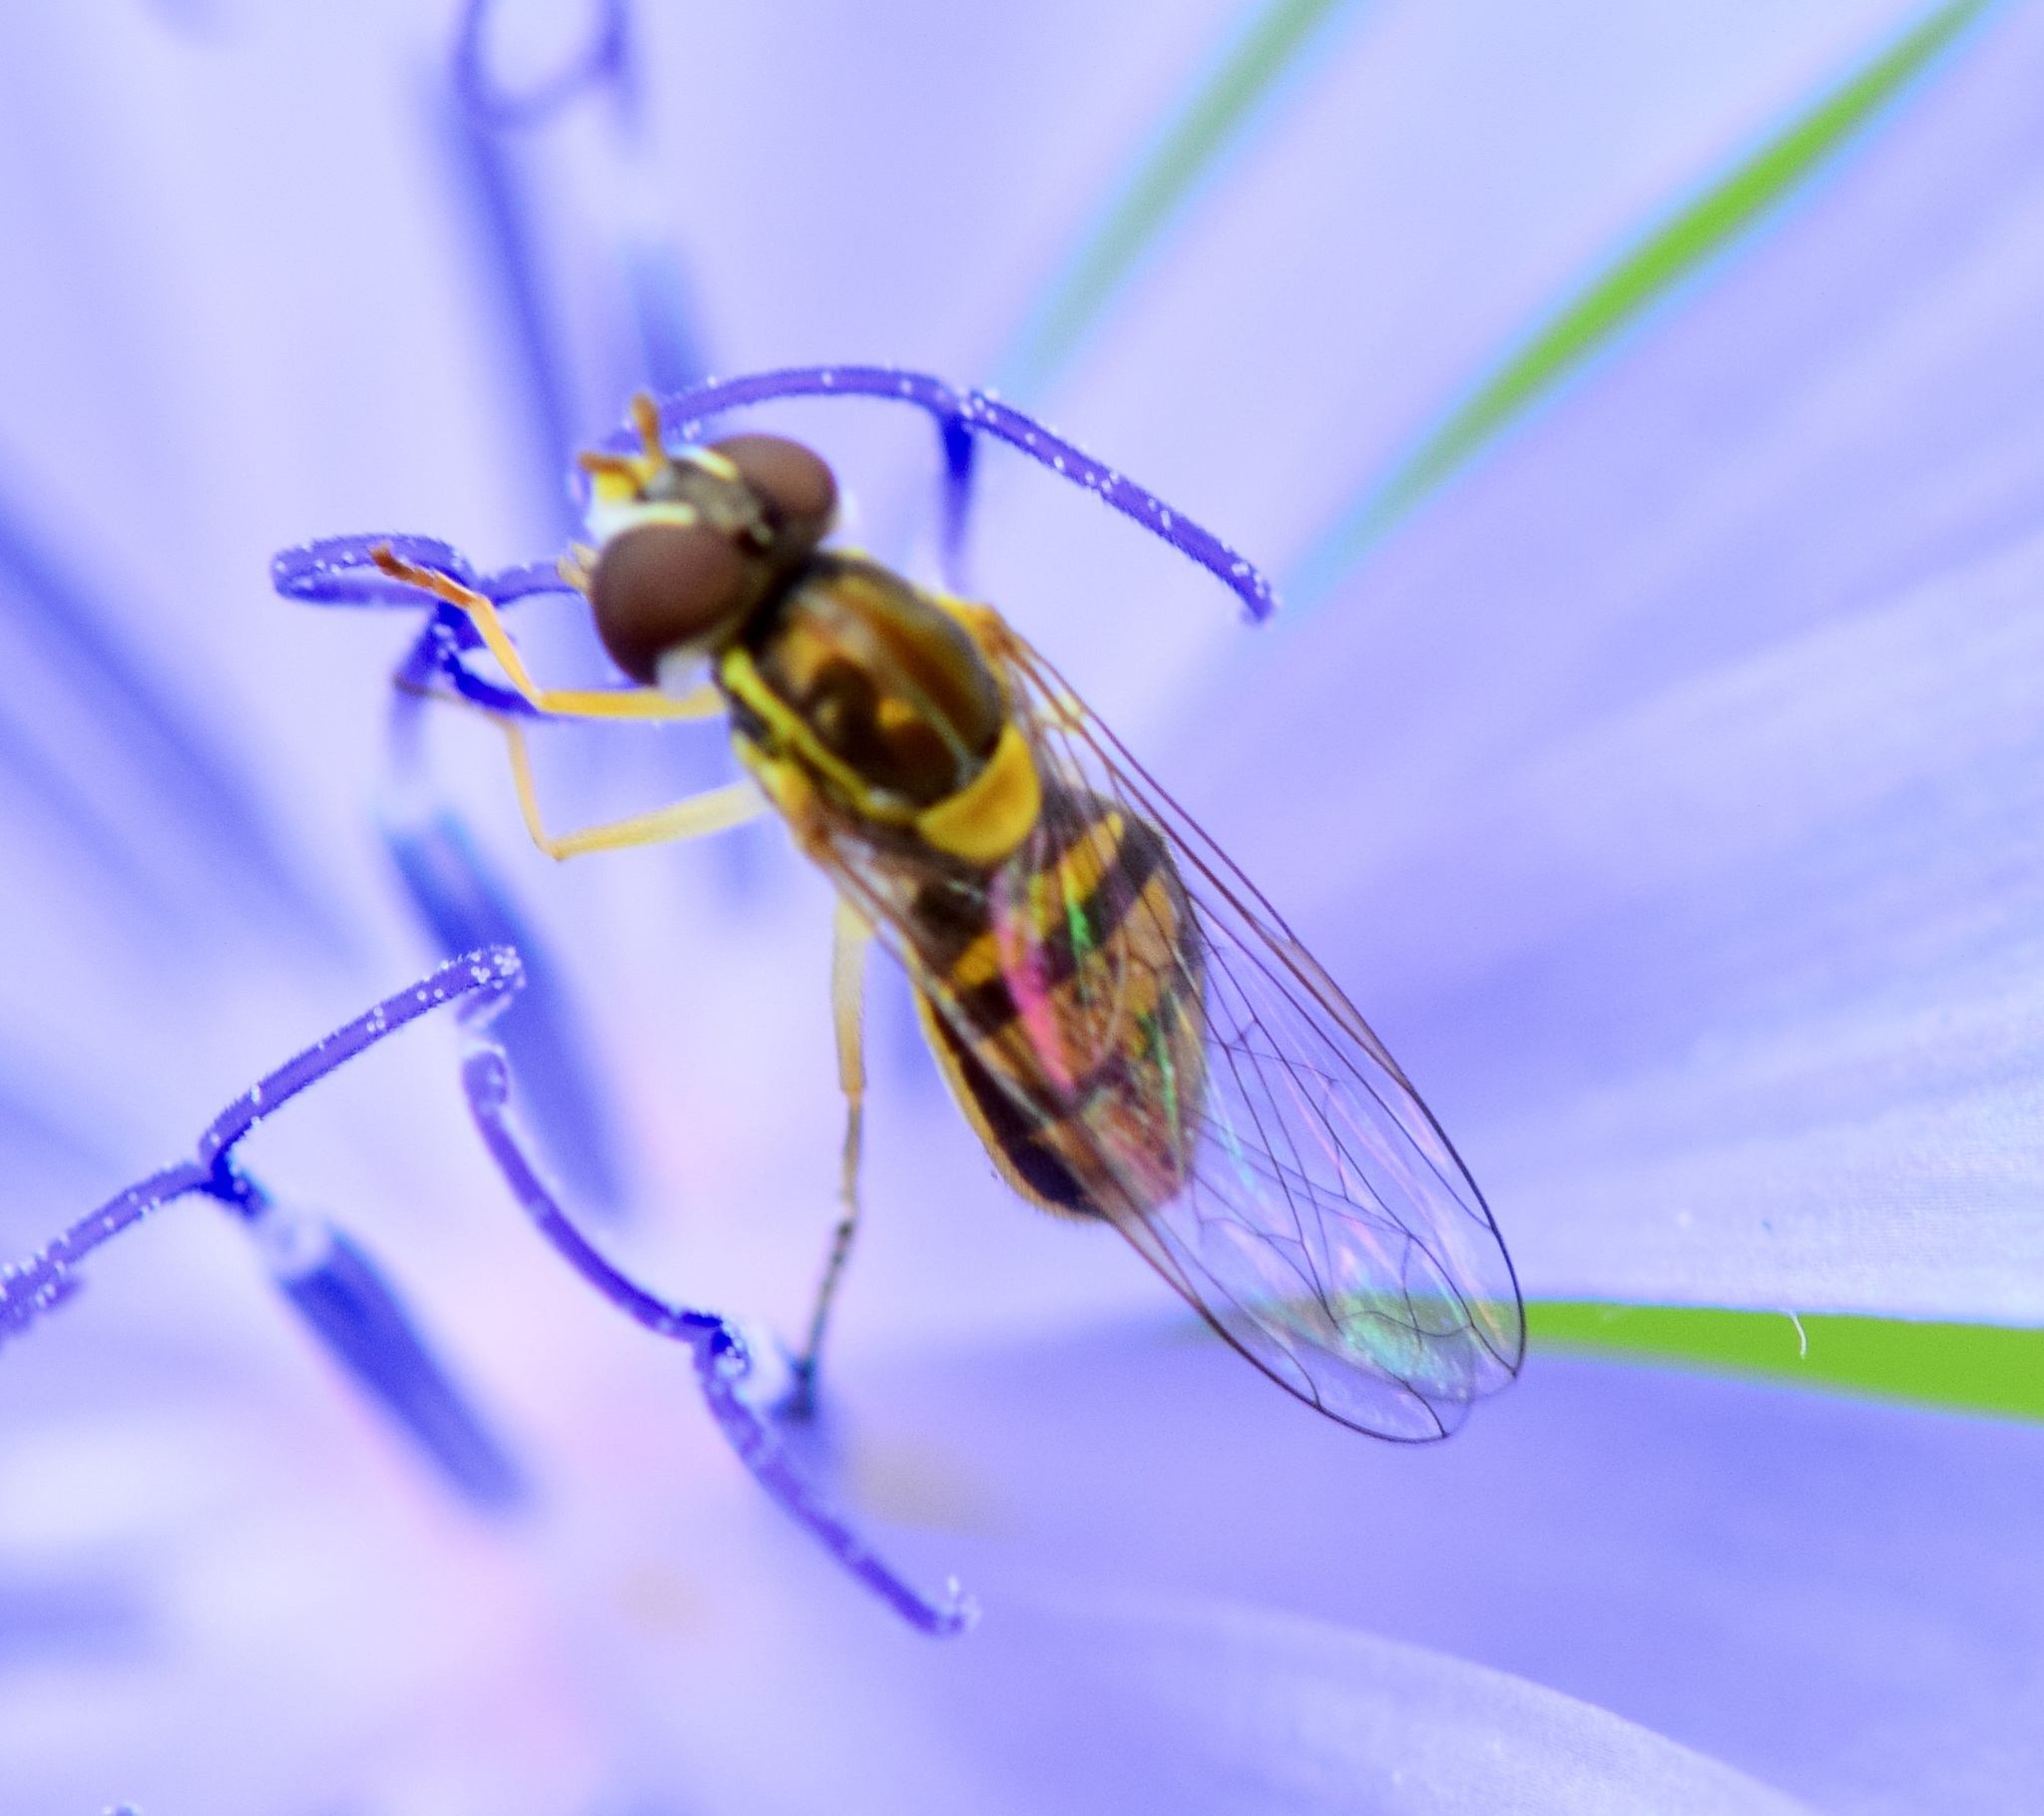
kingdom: Animalia
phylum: Arthropoda
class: Insecta
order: Diptera
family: Syrphidae
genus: Toxomerus
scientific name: Toxomerus marginatus
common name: Syrphid fly
